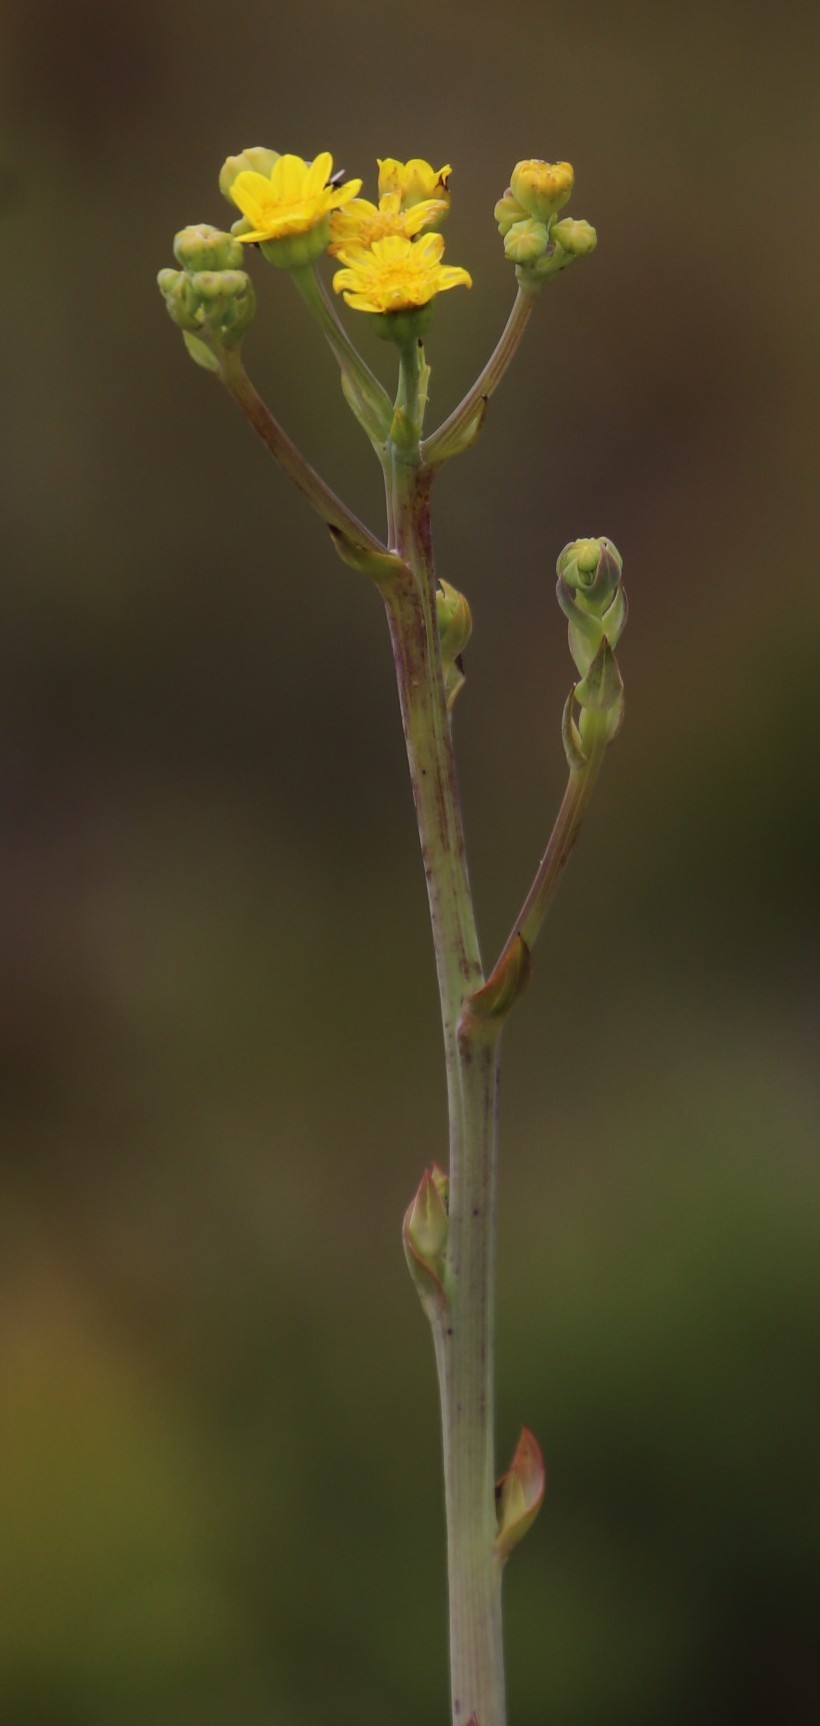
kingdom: Plantae
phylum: Tracheophyta
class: Magnoliopsida
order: Asterales
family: Asteraceae
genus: Othonna
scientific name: Othonna quinquedentata
